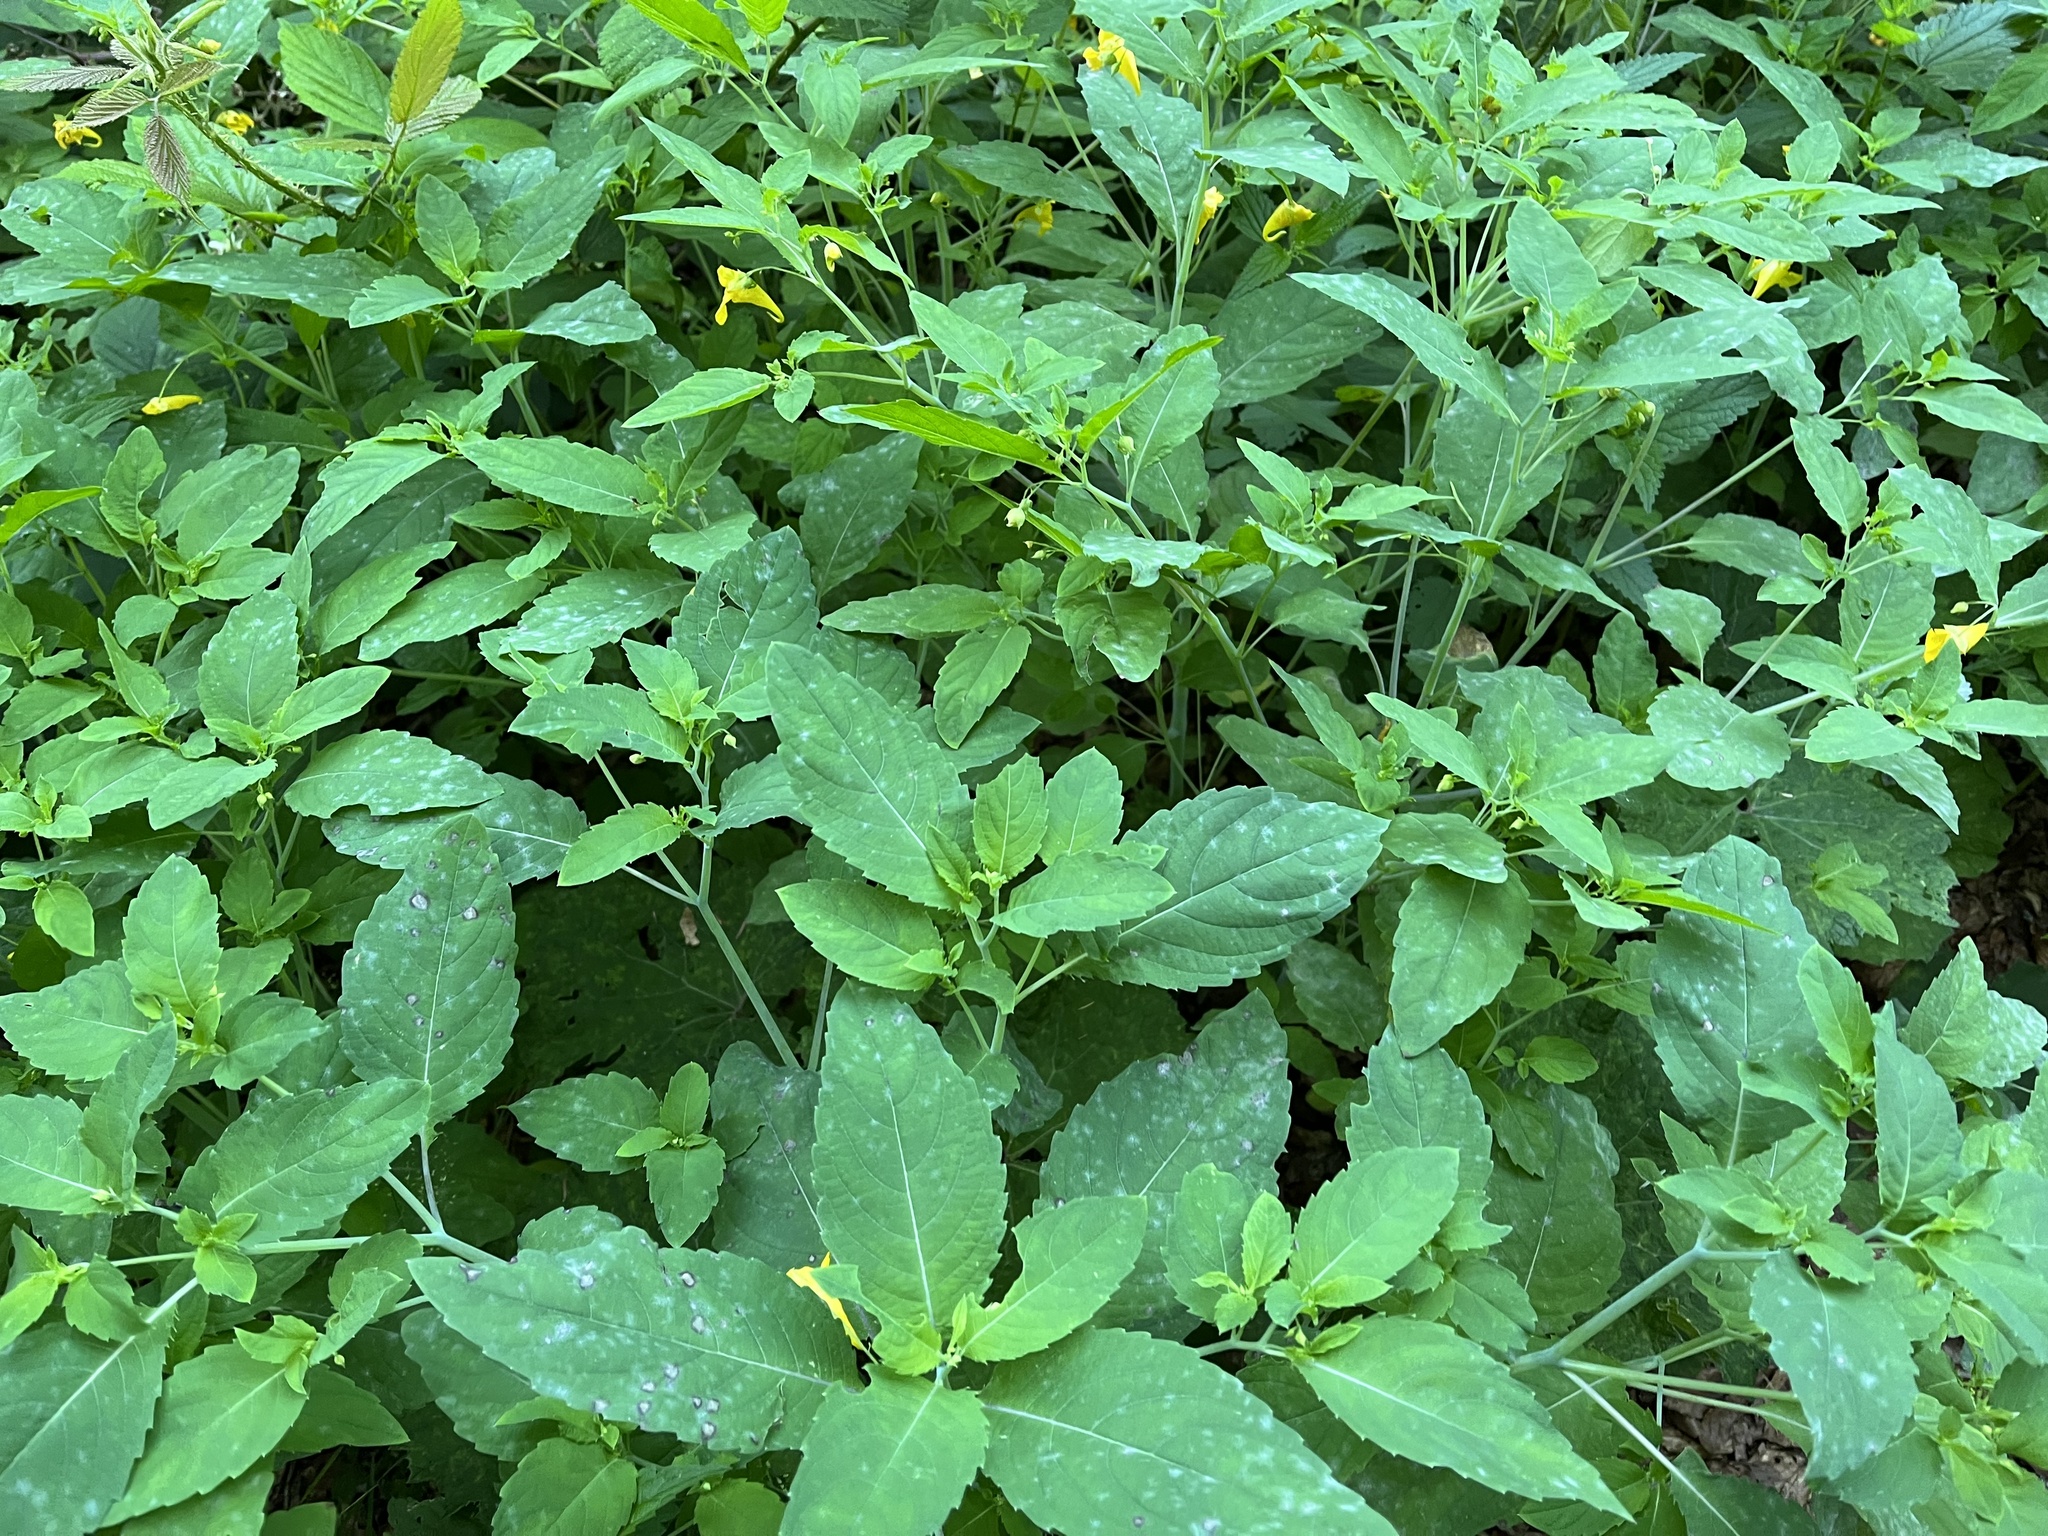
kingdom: Plantae
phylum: Tracheophyta
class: Magnoliopsida
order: Ericales
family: Balsaminaceae
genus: Impatiens
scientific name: Impatiens noli-tangere
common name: Touch-me-not balsam
